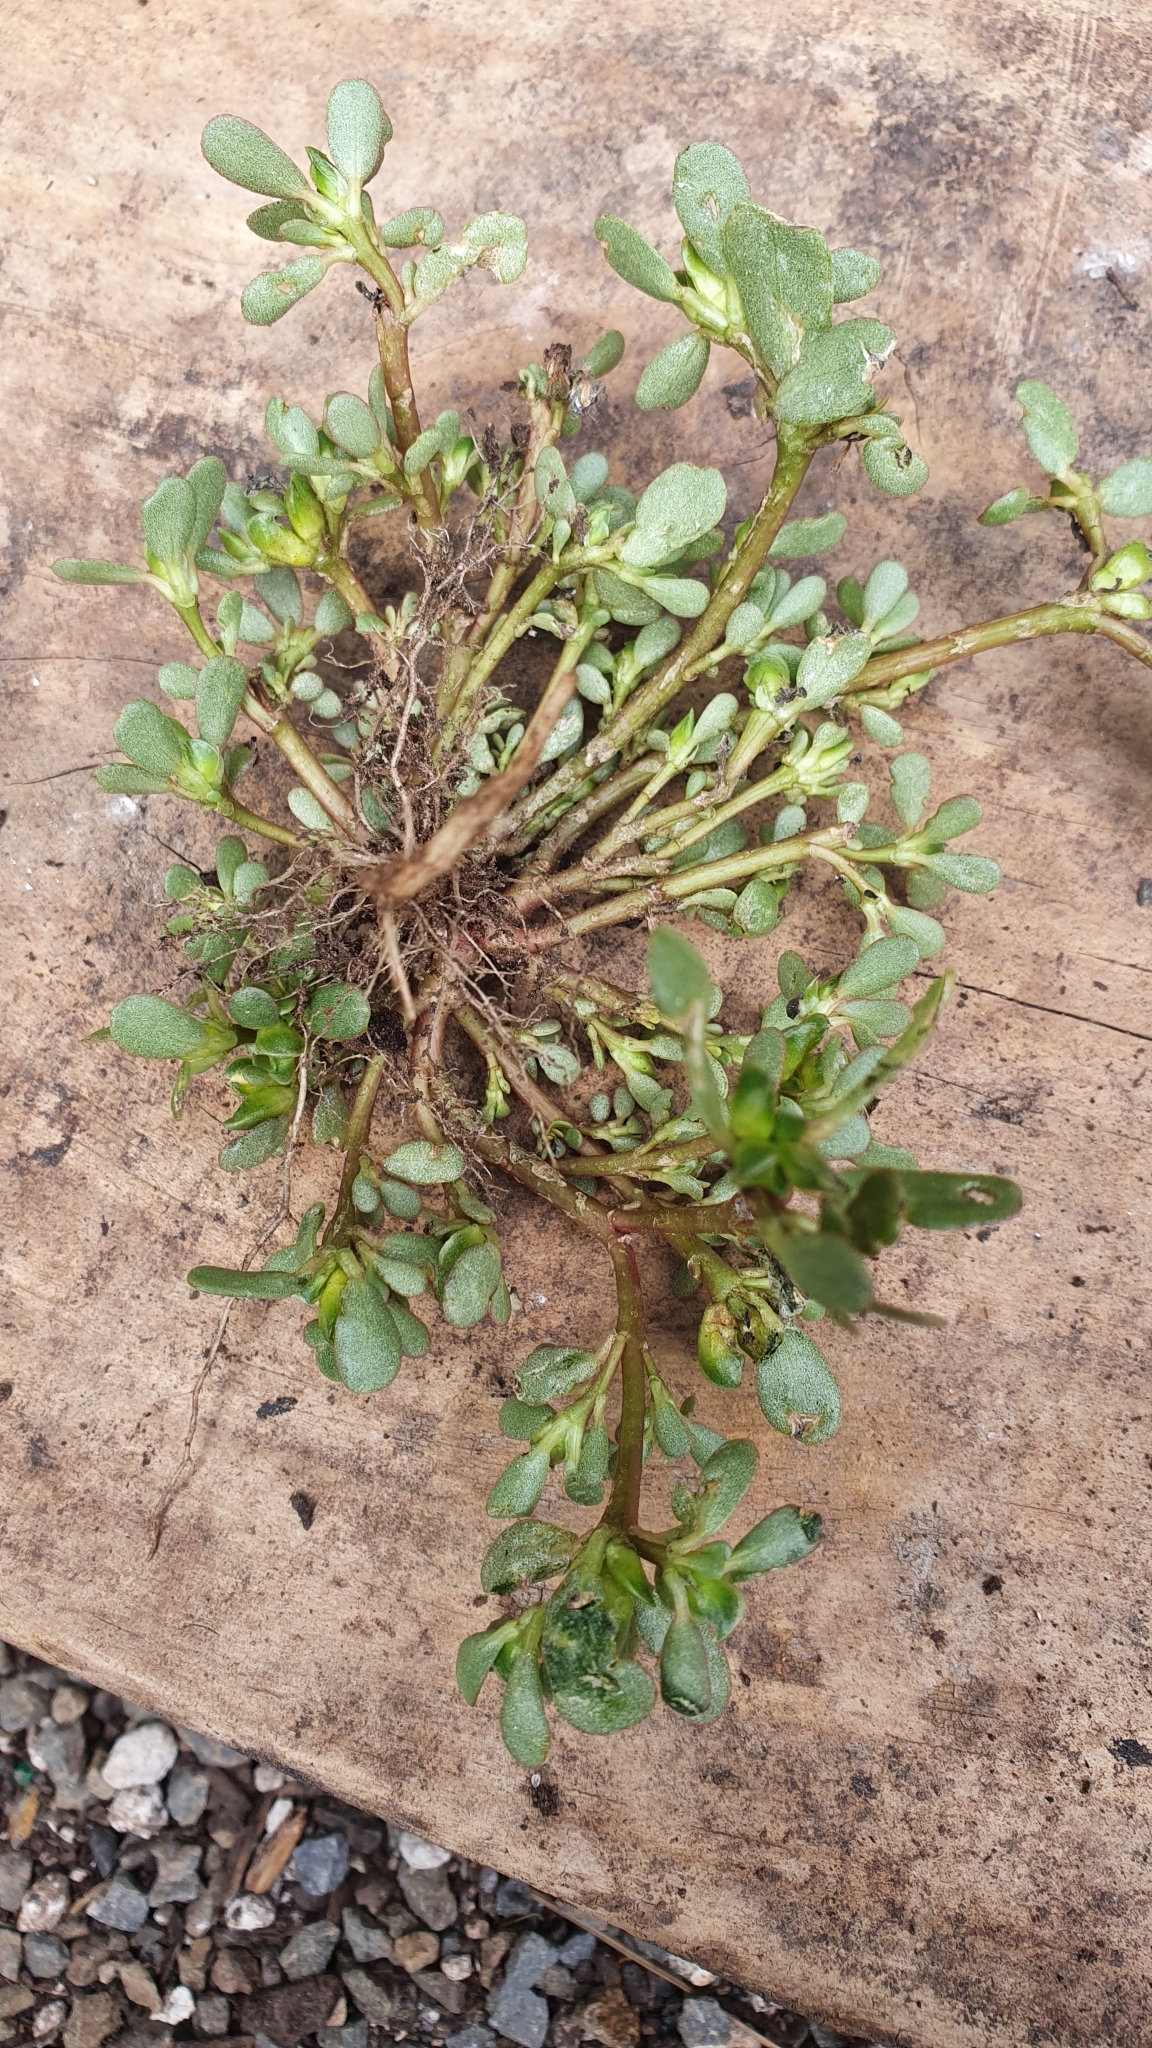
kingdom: Plantae
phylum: Tracheophyta
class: Magnoliopsida
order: Caryophyllales
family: Portulacaceae
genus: Portulaca
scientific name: Portulaca oleracea
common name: Common purslane
